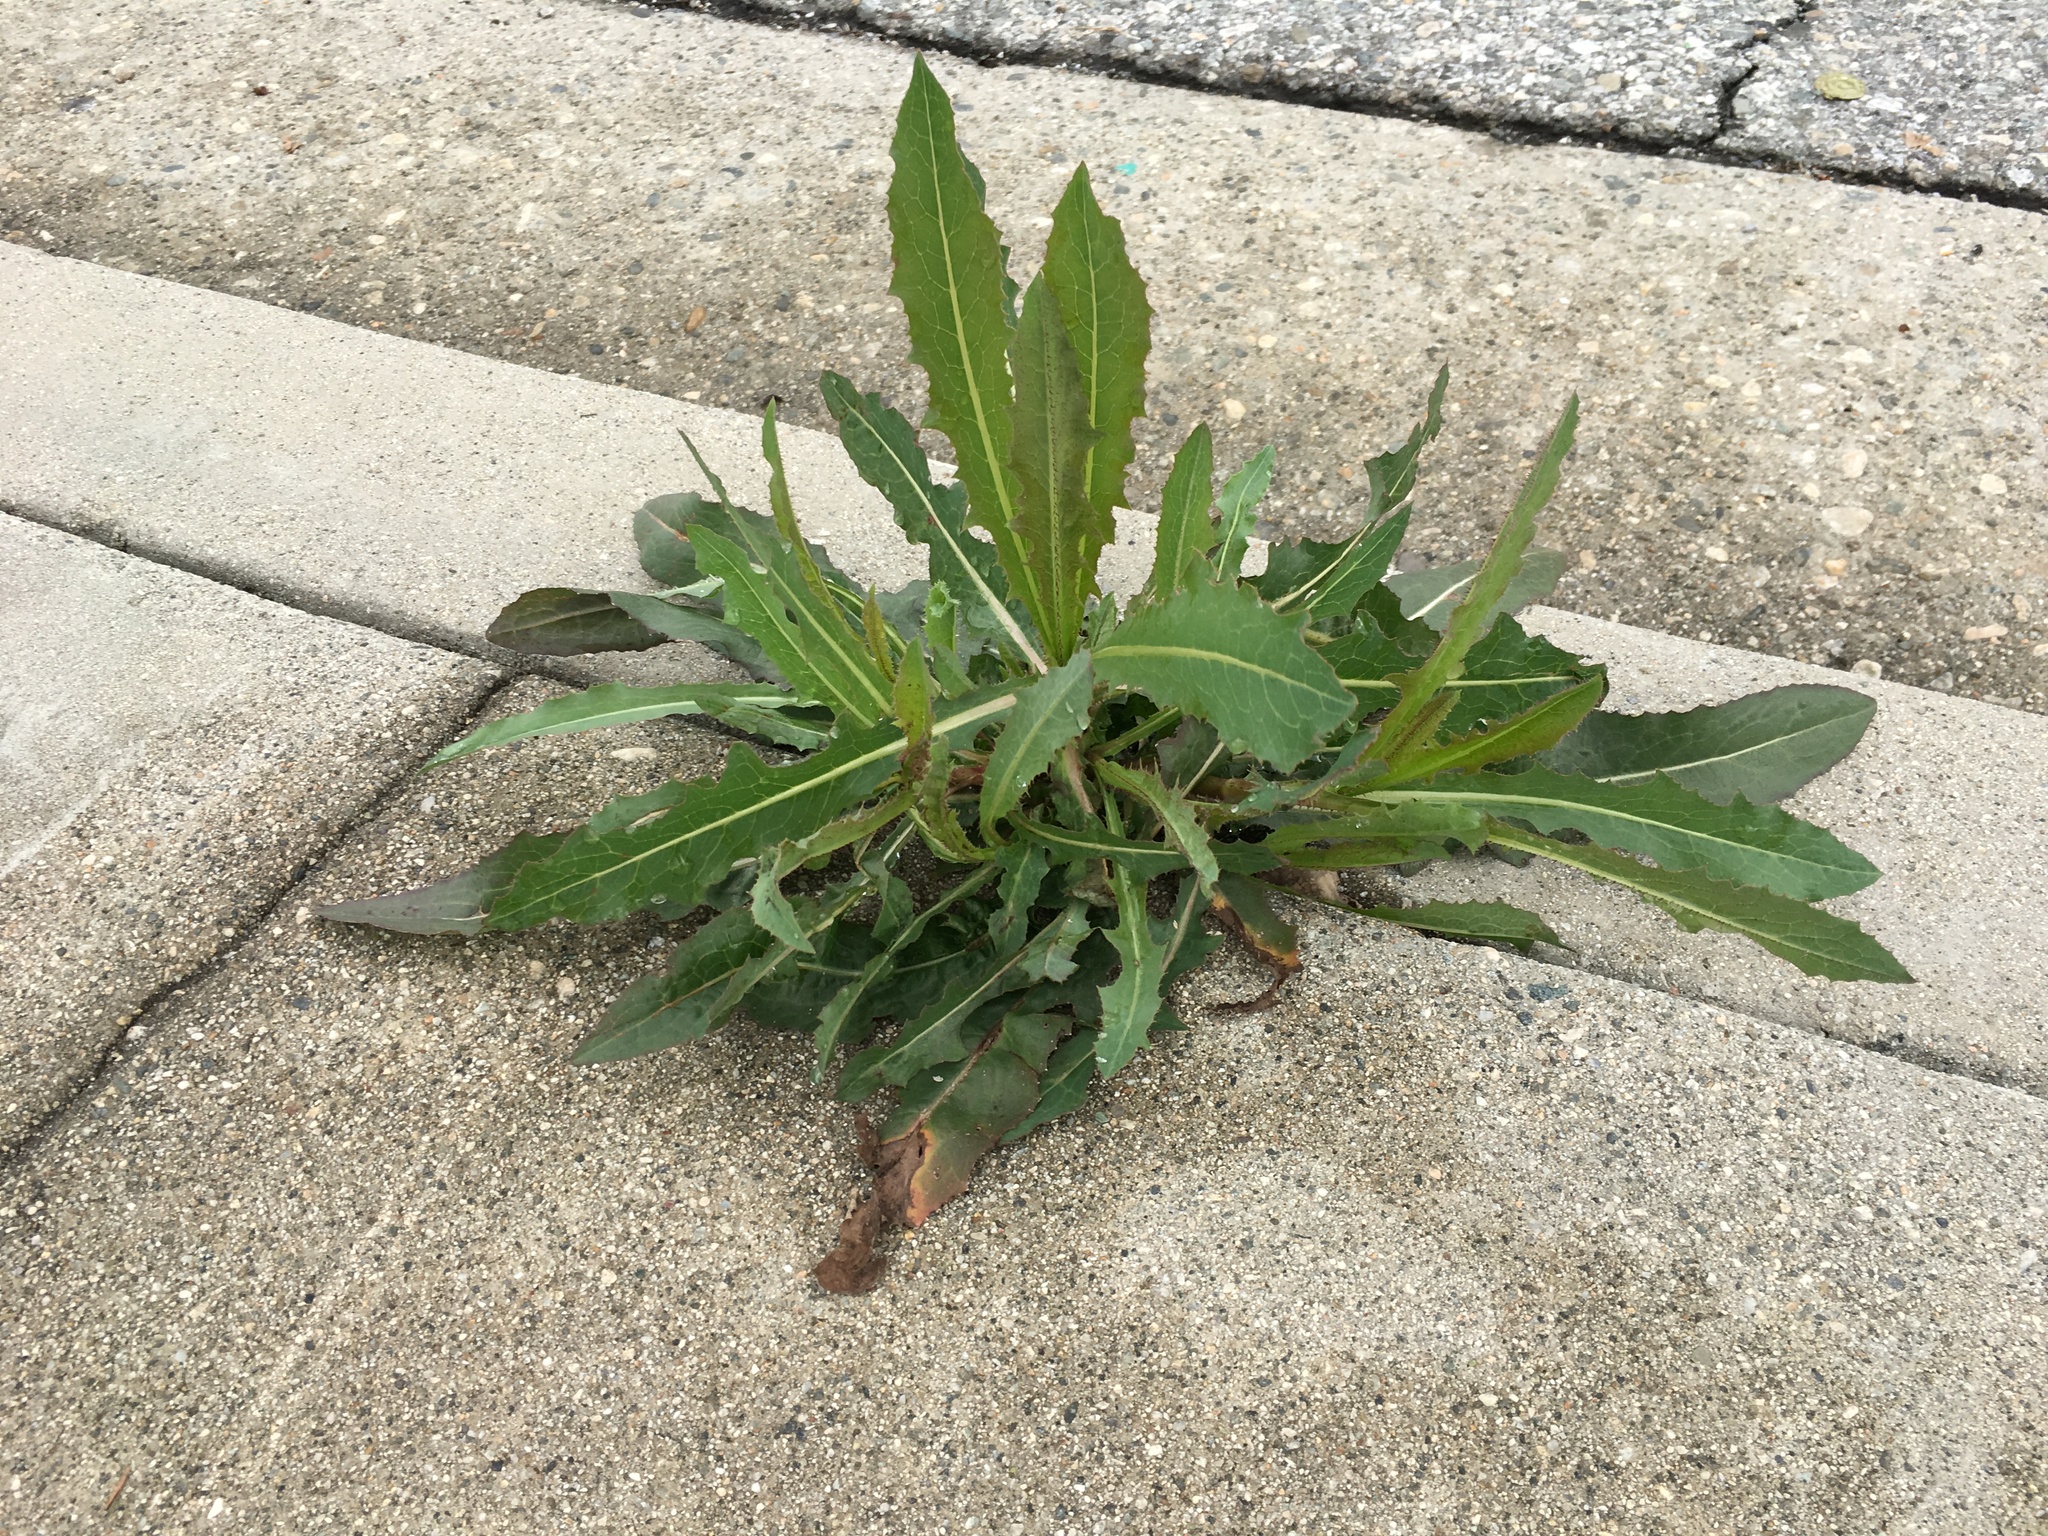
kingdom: Plantae
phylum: Tracheophyta
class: Magnoliopsida
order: Asterales
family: Asteraceae
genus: Lactuca
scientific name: Lactuca serriola
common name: Prickly lettuce
